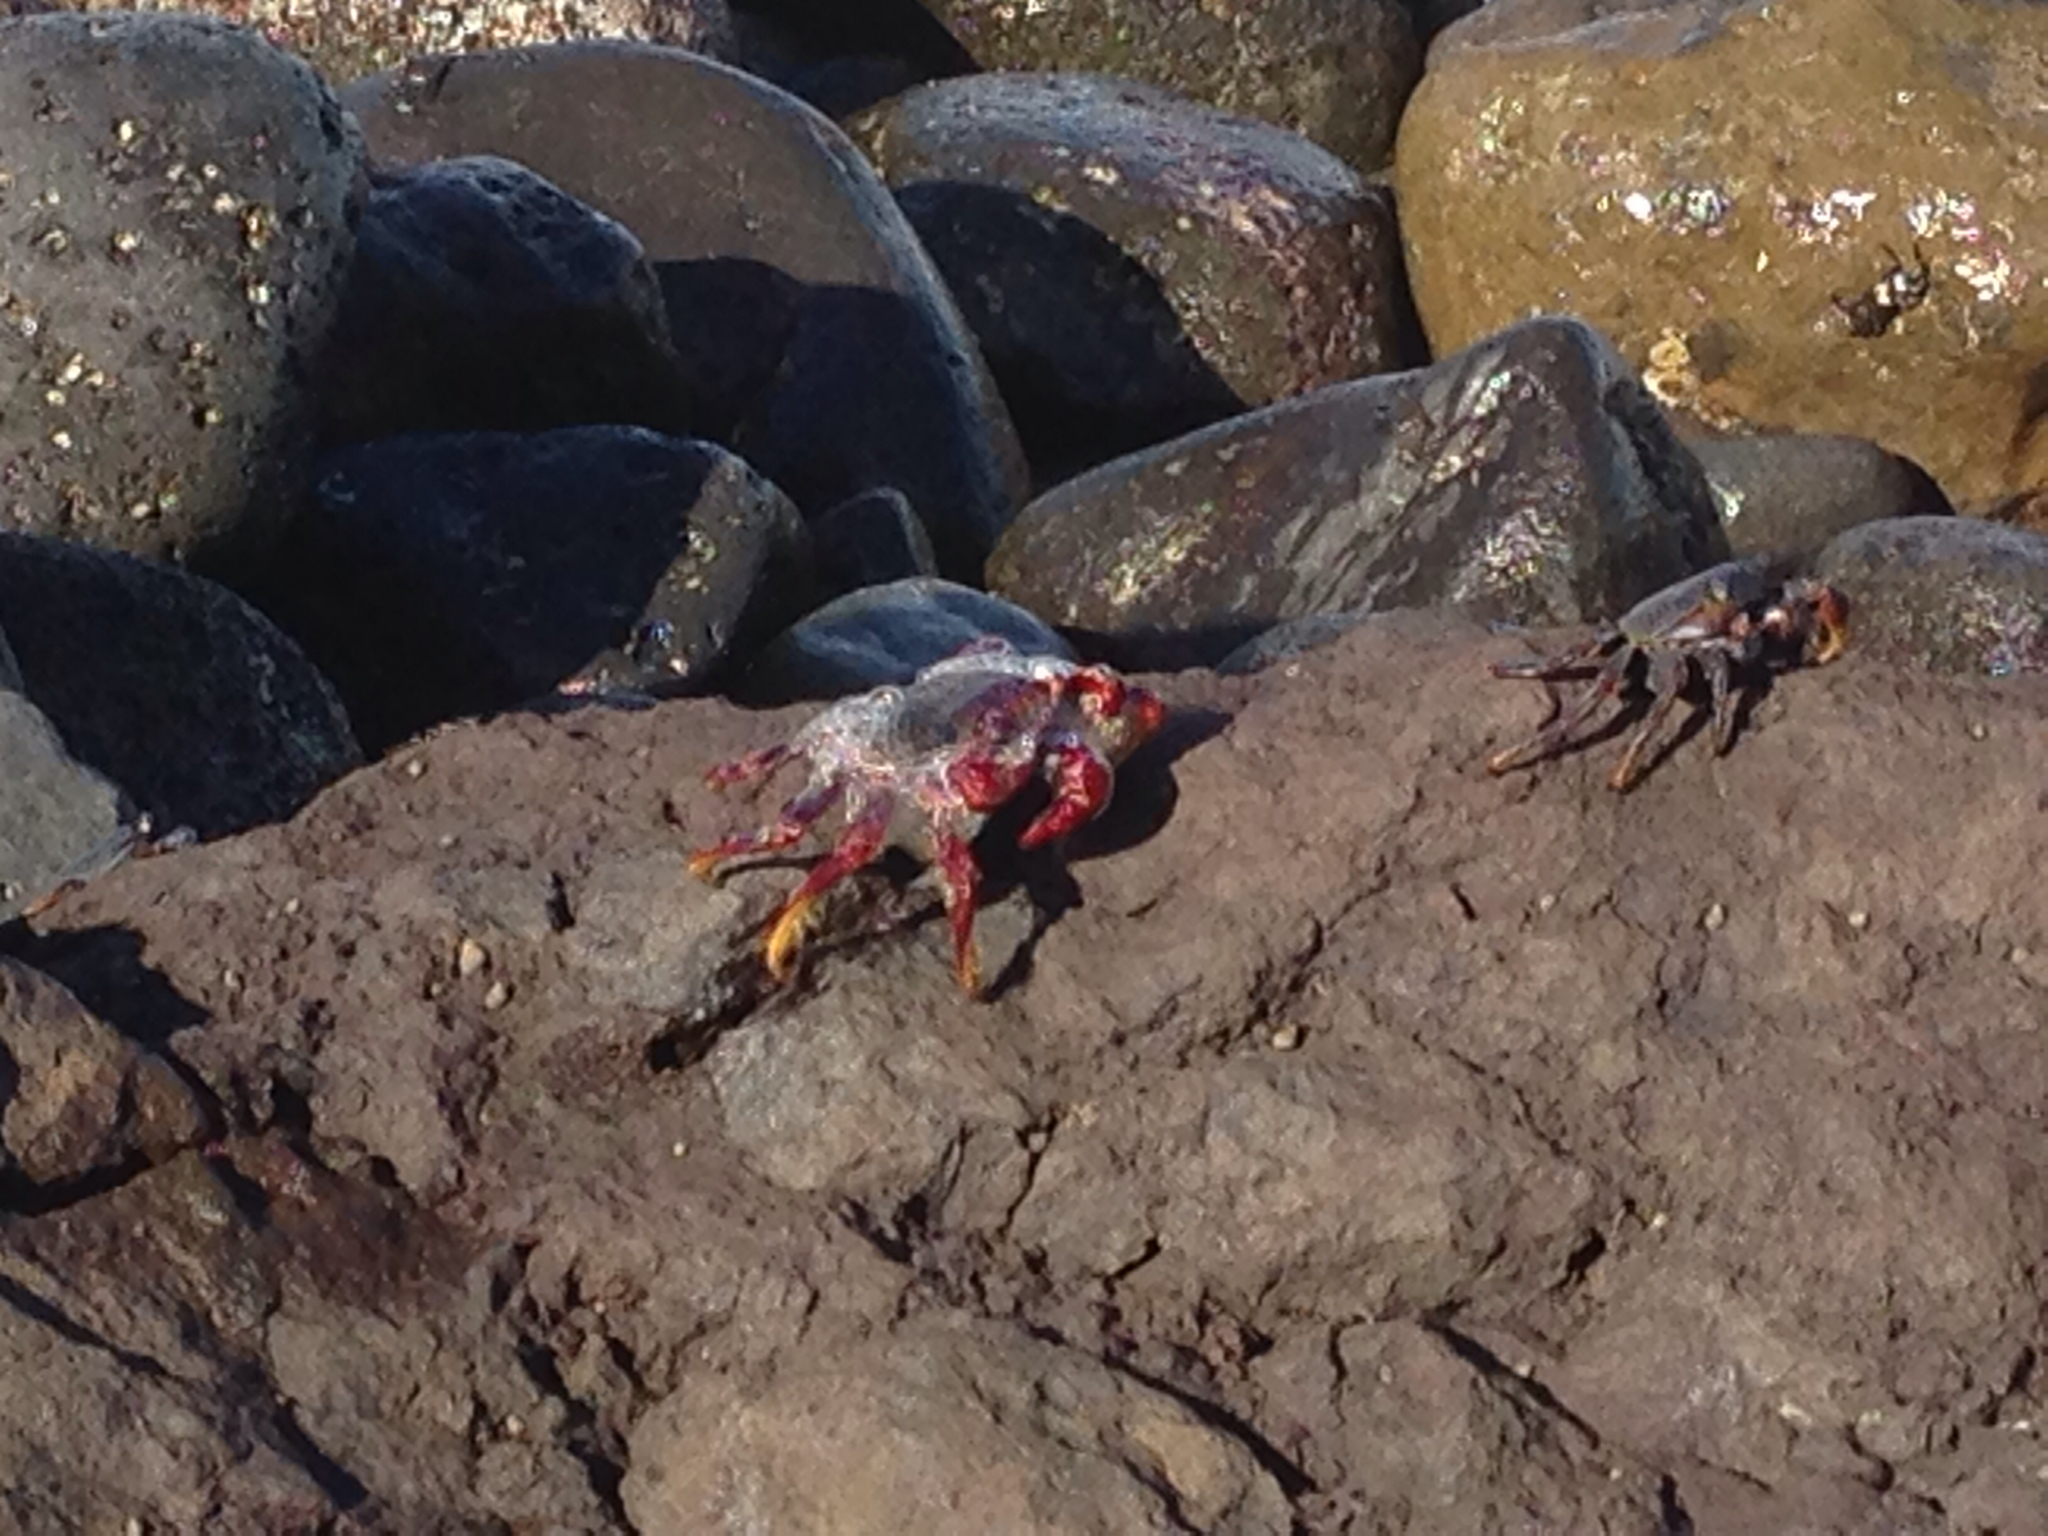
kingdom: Animalia
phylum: Arthropoda
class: Malacostraca
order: Decapoda
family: Grapsidae
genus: Grapsus
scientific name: Grapsus adscensionis
